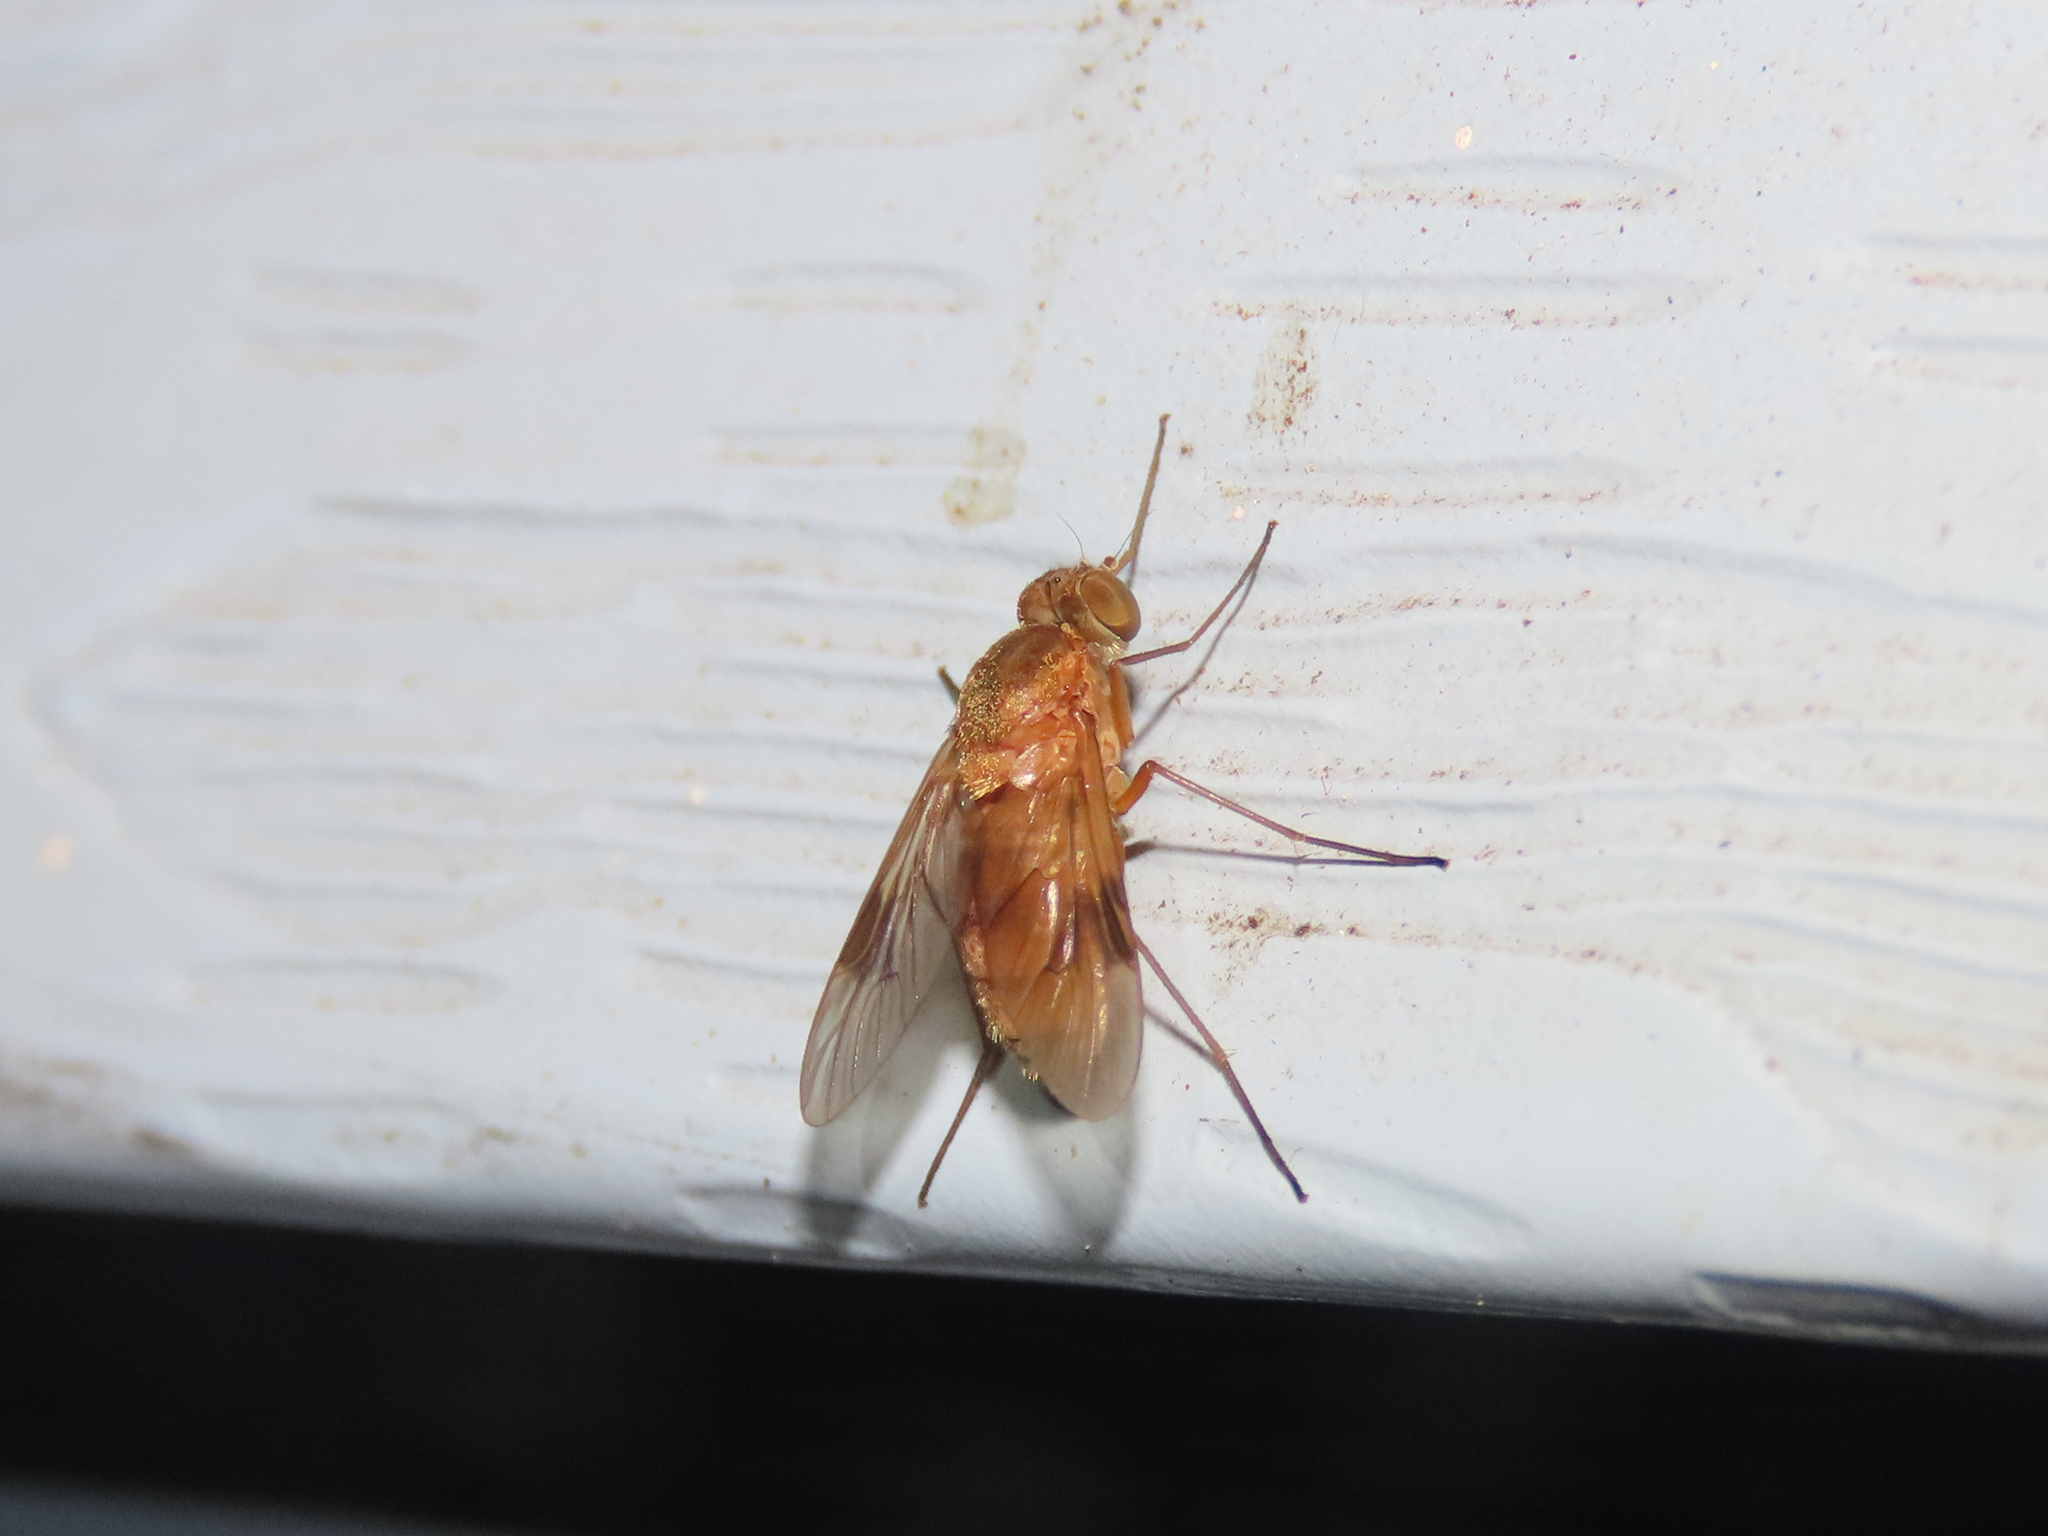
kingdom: Animalia
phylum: Arthropoda
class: Insecta
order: Diptera
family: Rhagionidae
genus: Chrysopilus
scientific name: Chrysopilus quadratus
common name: Quadrate snipe fly
